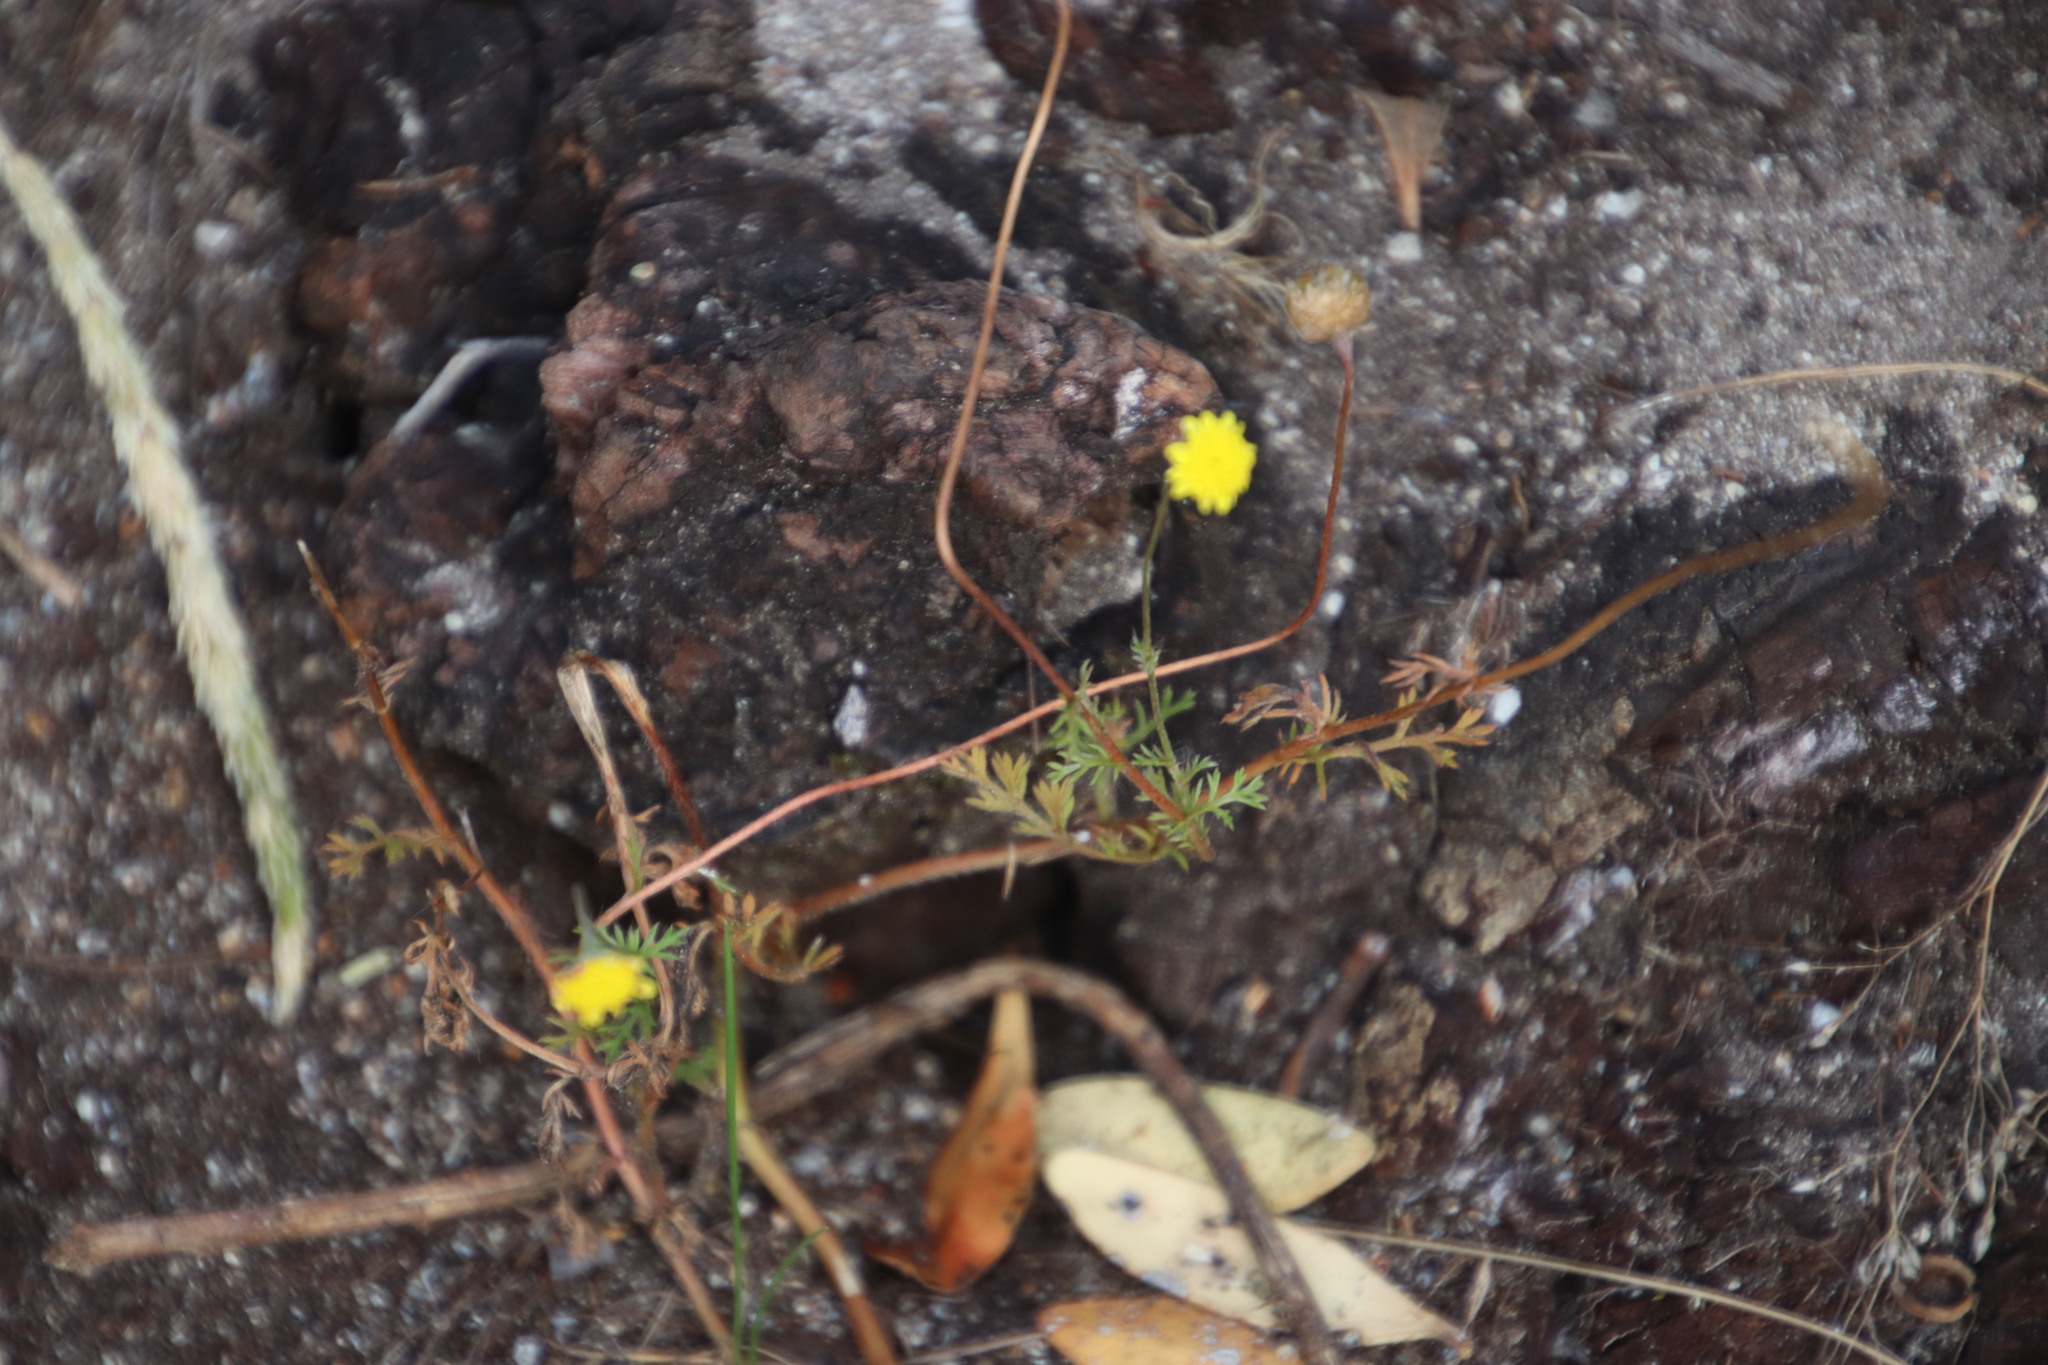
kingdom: Plantae
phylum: Tracheophyta
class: Magnoliopsida
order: Asterales
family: Asteraceae
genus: Cotula
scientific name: Cotula pruinosa
